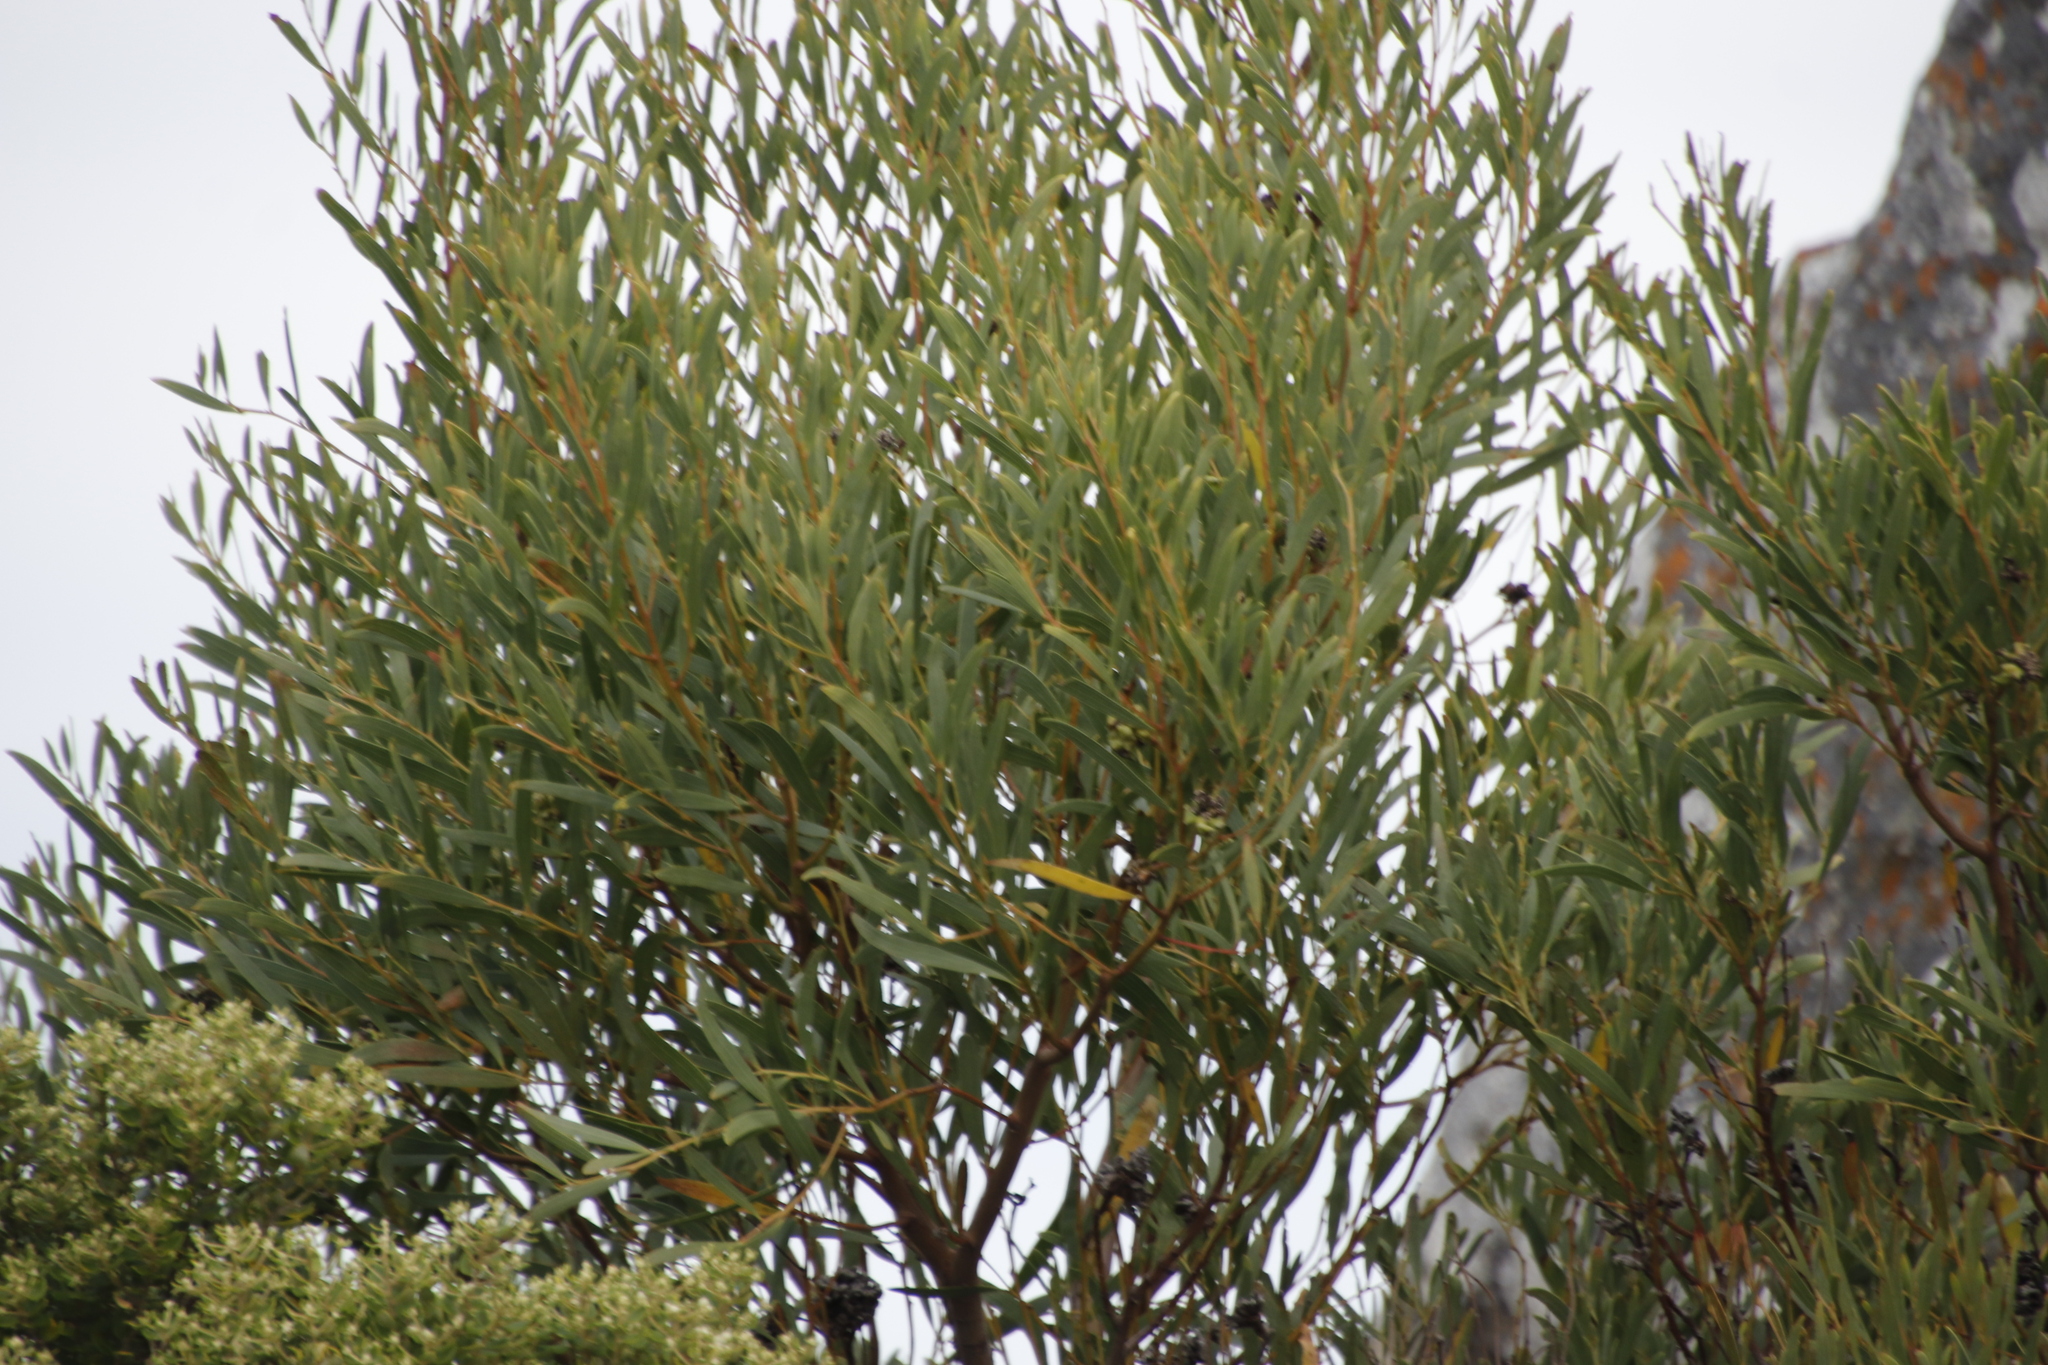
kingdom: Plantae
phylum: Tracheophyta
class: Magnoliopsida
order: Fabales
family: Fabaceae
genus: Acacia
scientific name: Acacia cyclops
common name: Coastal wattle
